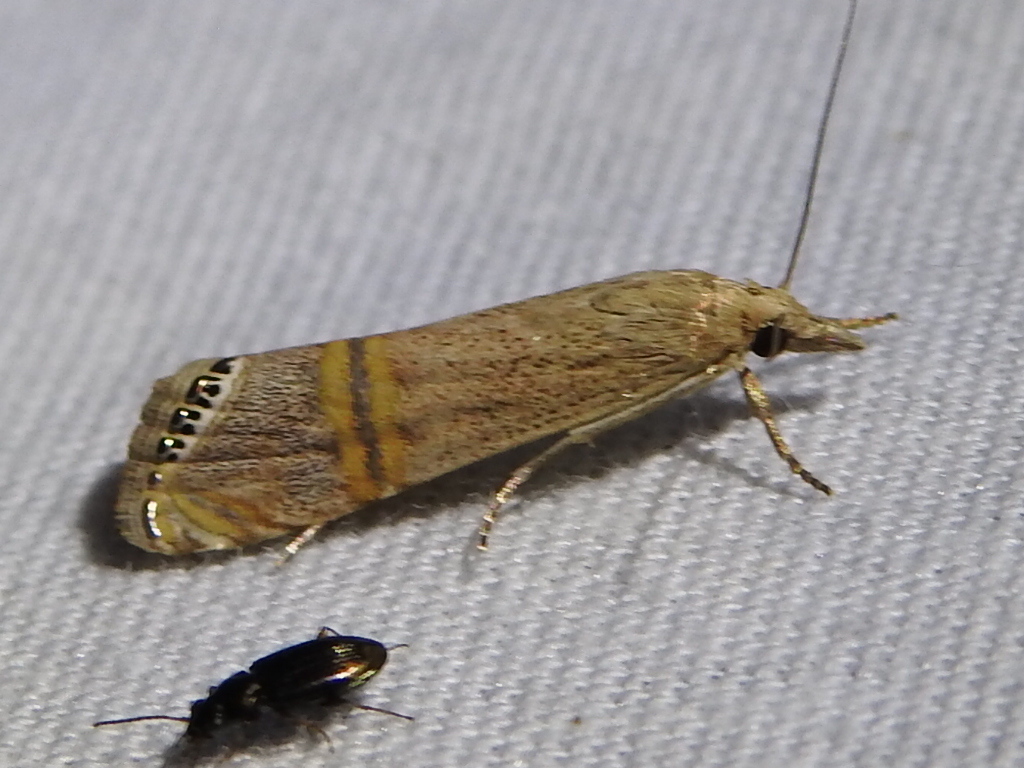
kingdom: Animalia
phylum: Arthropoda
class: Insecta
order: Lepidoptera
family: Crambidae
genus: Euchromius
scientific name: Euchromius ocellea
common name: Necklace veneer moth
